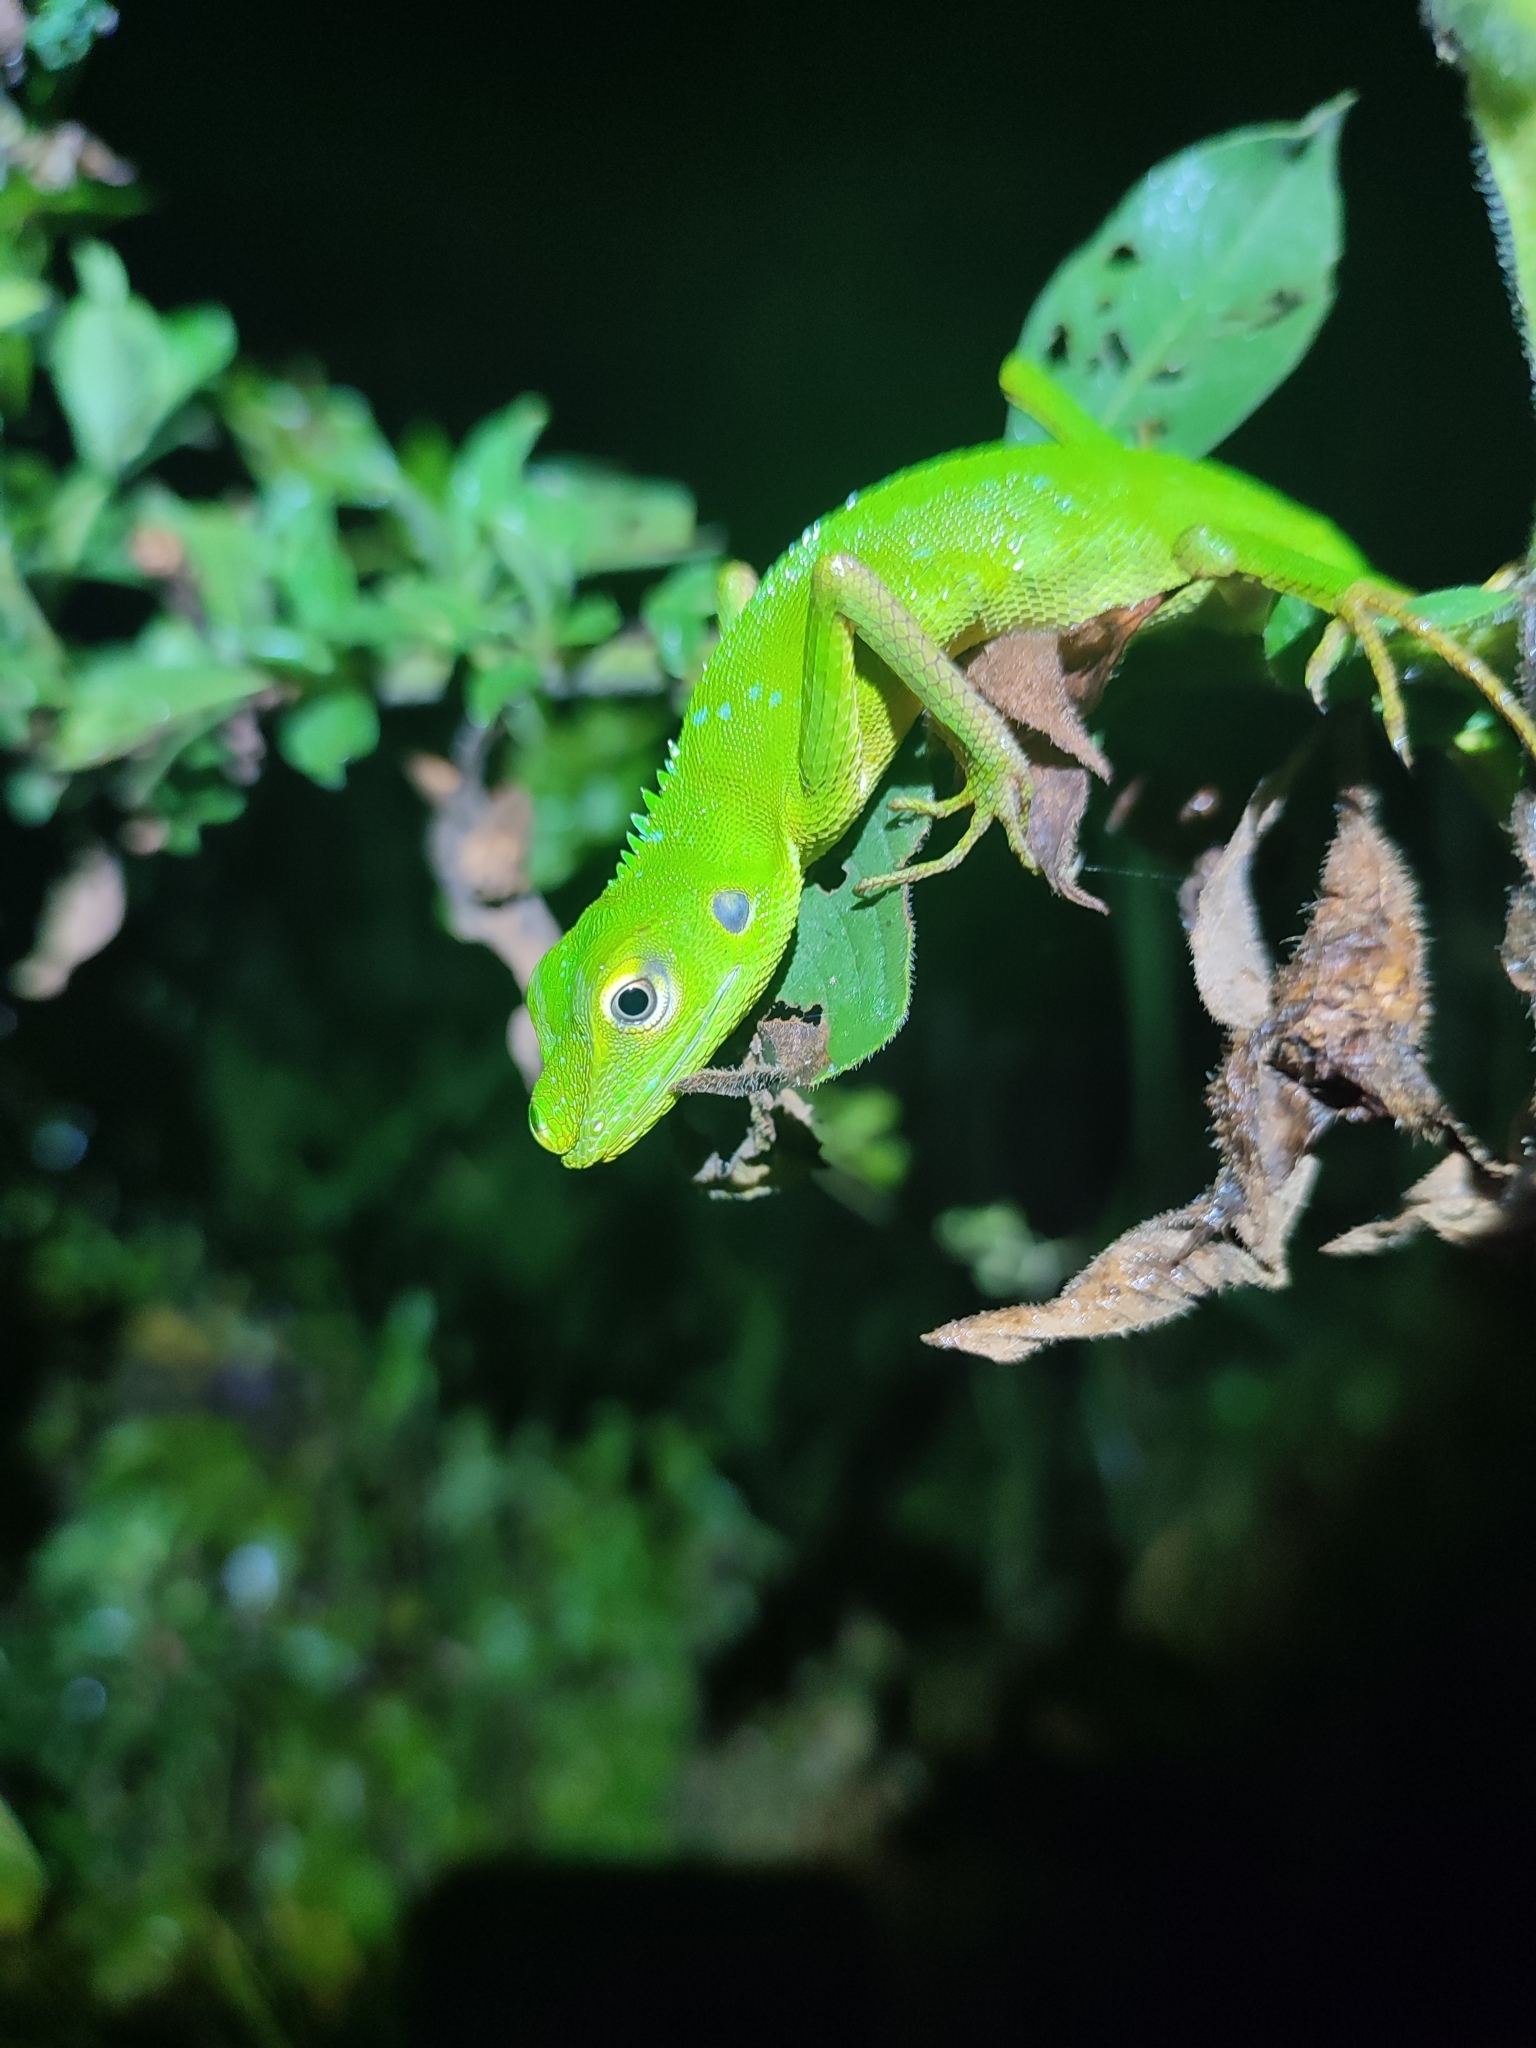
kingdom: Animalia
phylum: Chordata
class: Squamata
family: Agamidae
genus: Bronchocela
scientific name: Bronchocela cristatella
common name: Green crested lizard
